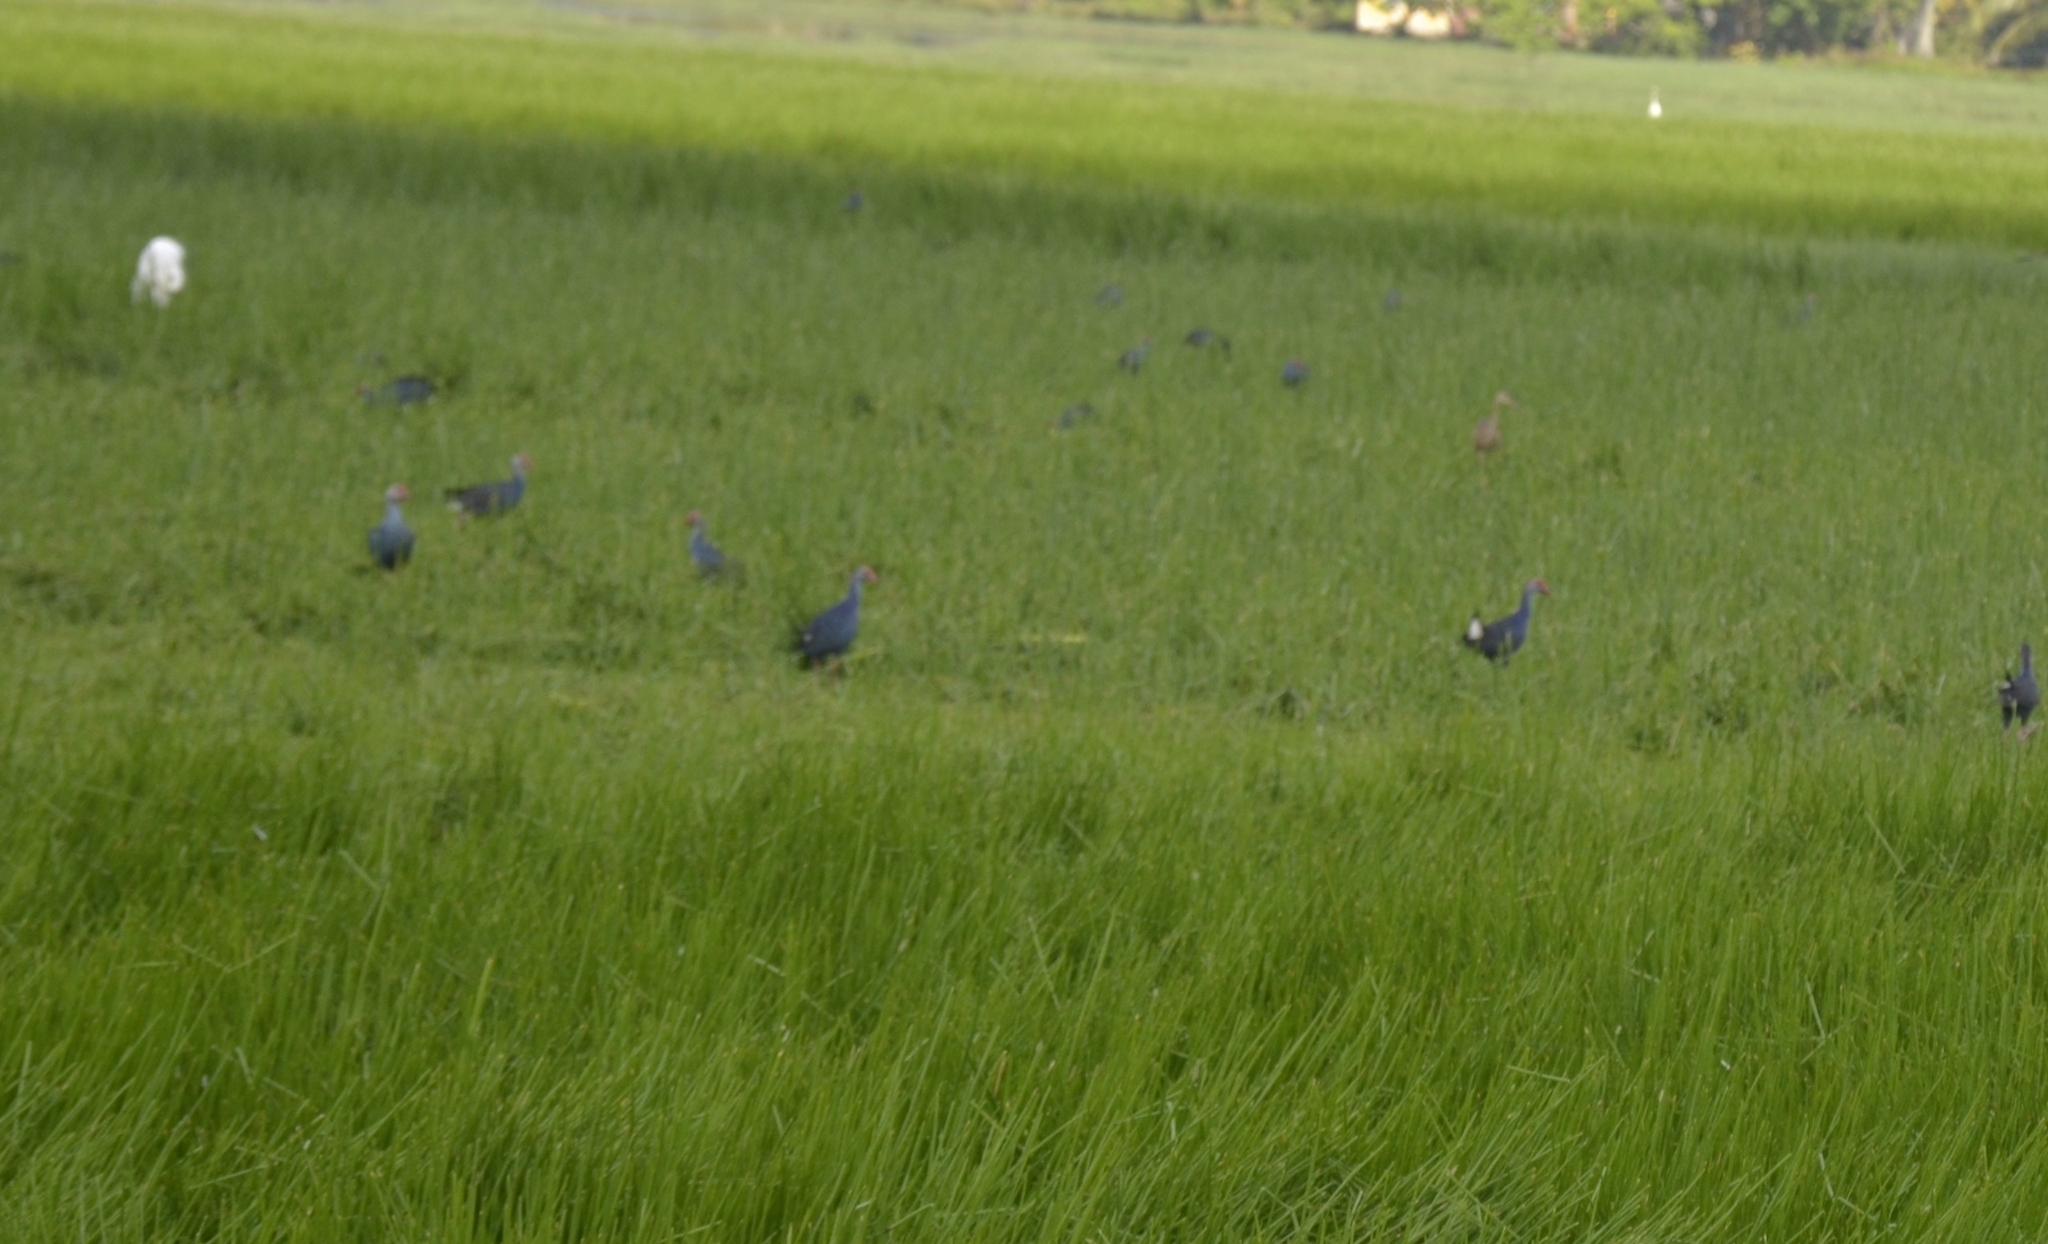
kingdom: Animalia
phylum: Chordata
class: Aves
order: Gruiformes
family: Rallidae
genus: Porphyrio
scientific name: Porphyrio porphyrio
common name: Purple swamphen
